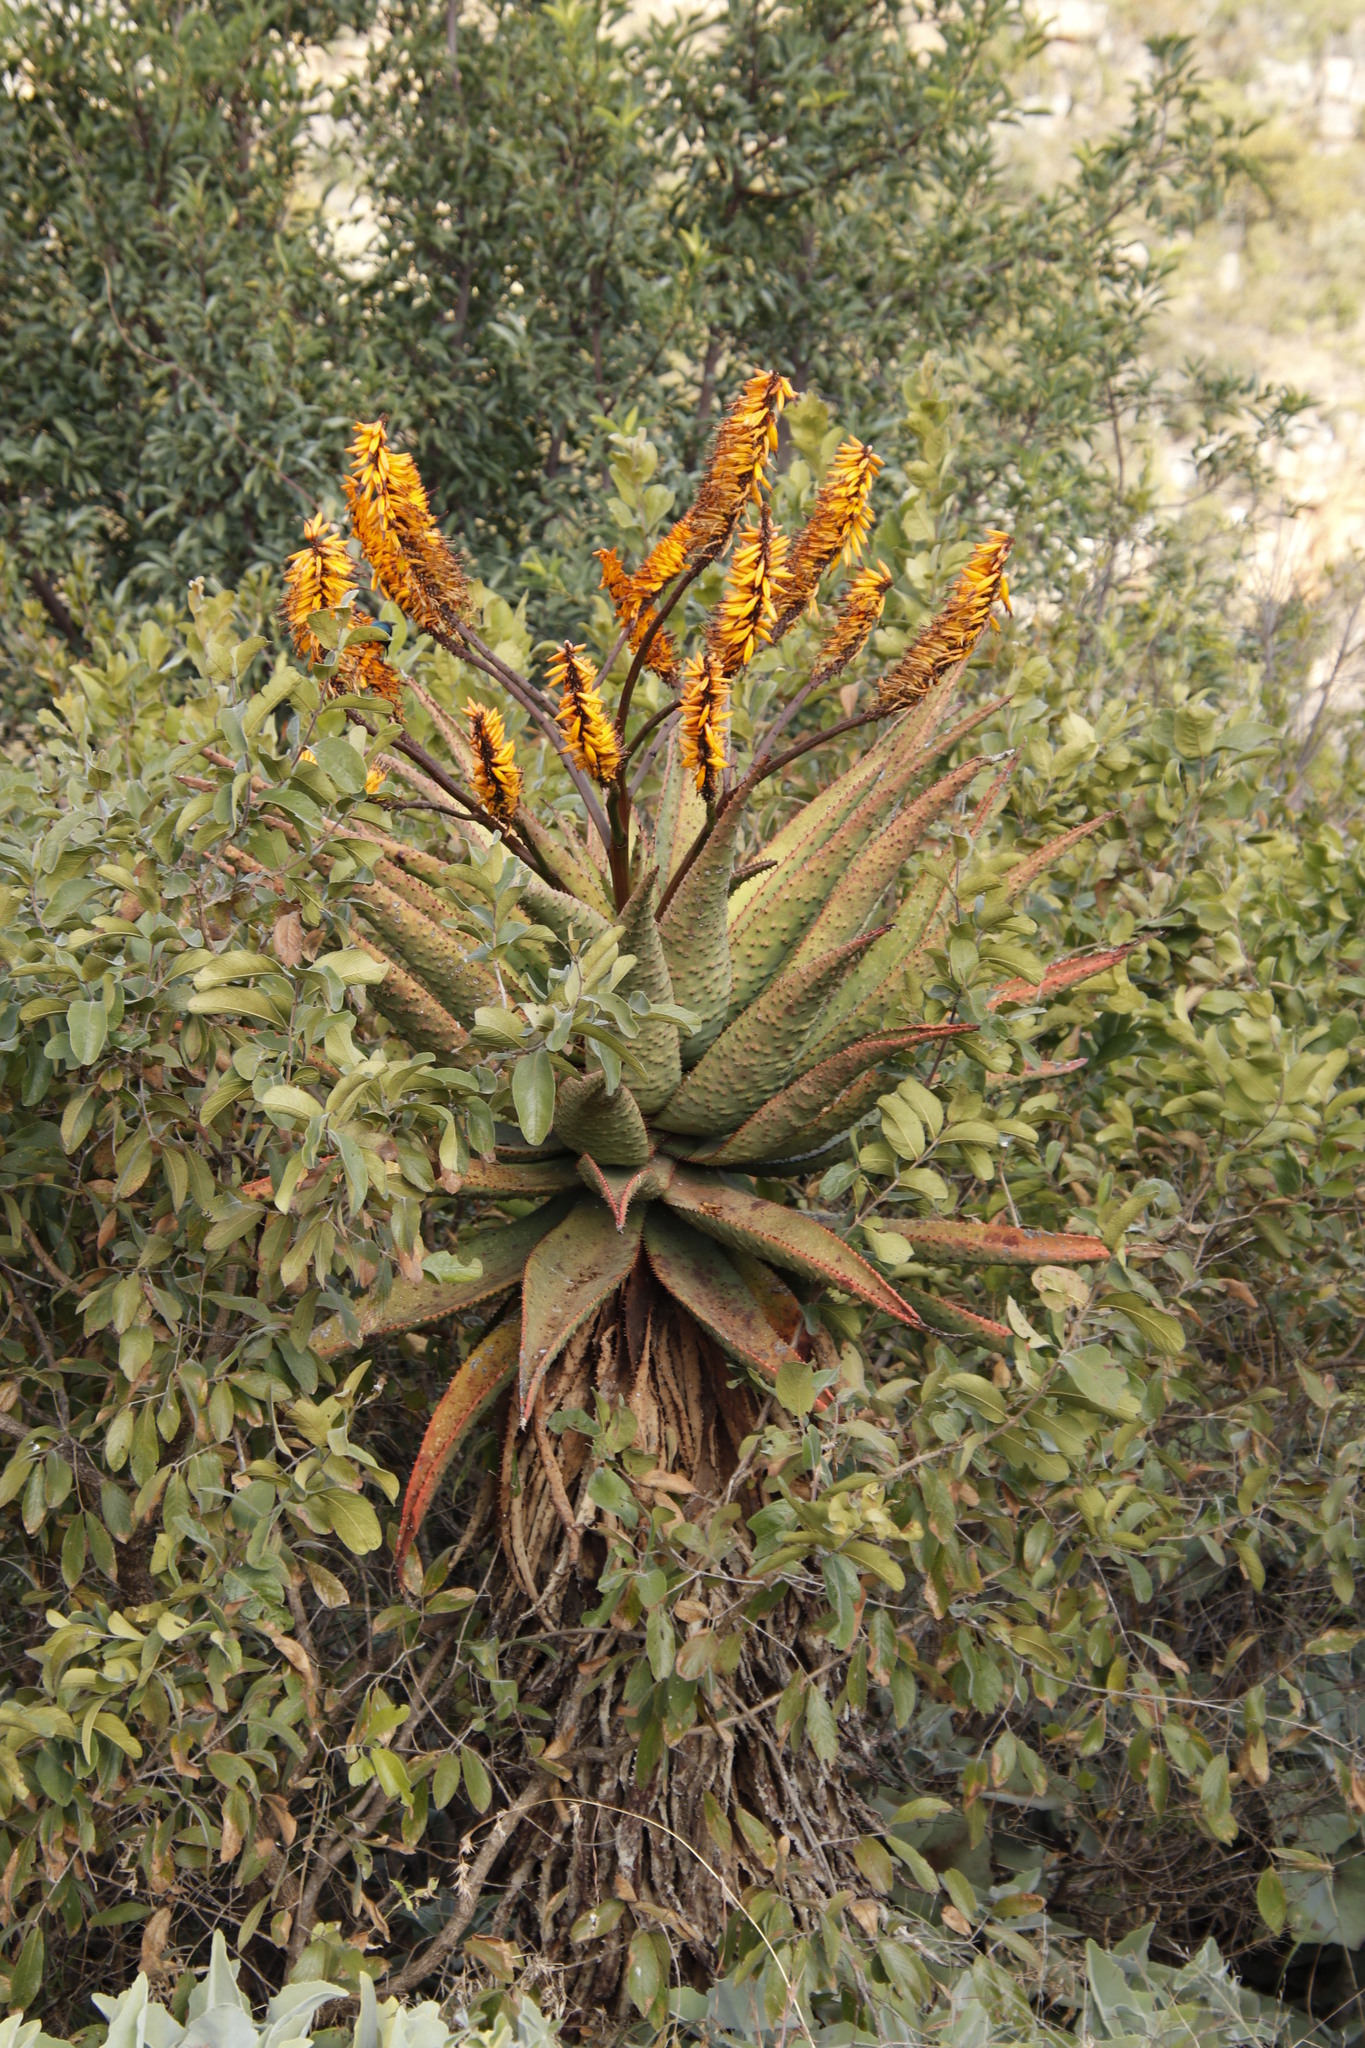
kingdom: Plantae
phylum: Tracheophyta
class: Liliopsida
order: Asparagales
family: Asphodelaceae
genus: Aloe
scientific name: Aloe marlothii
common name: Flat-flowered aloe
